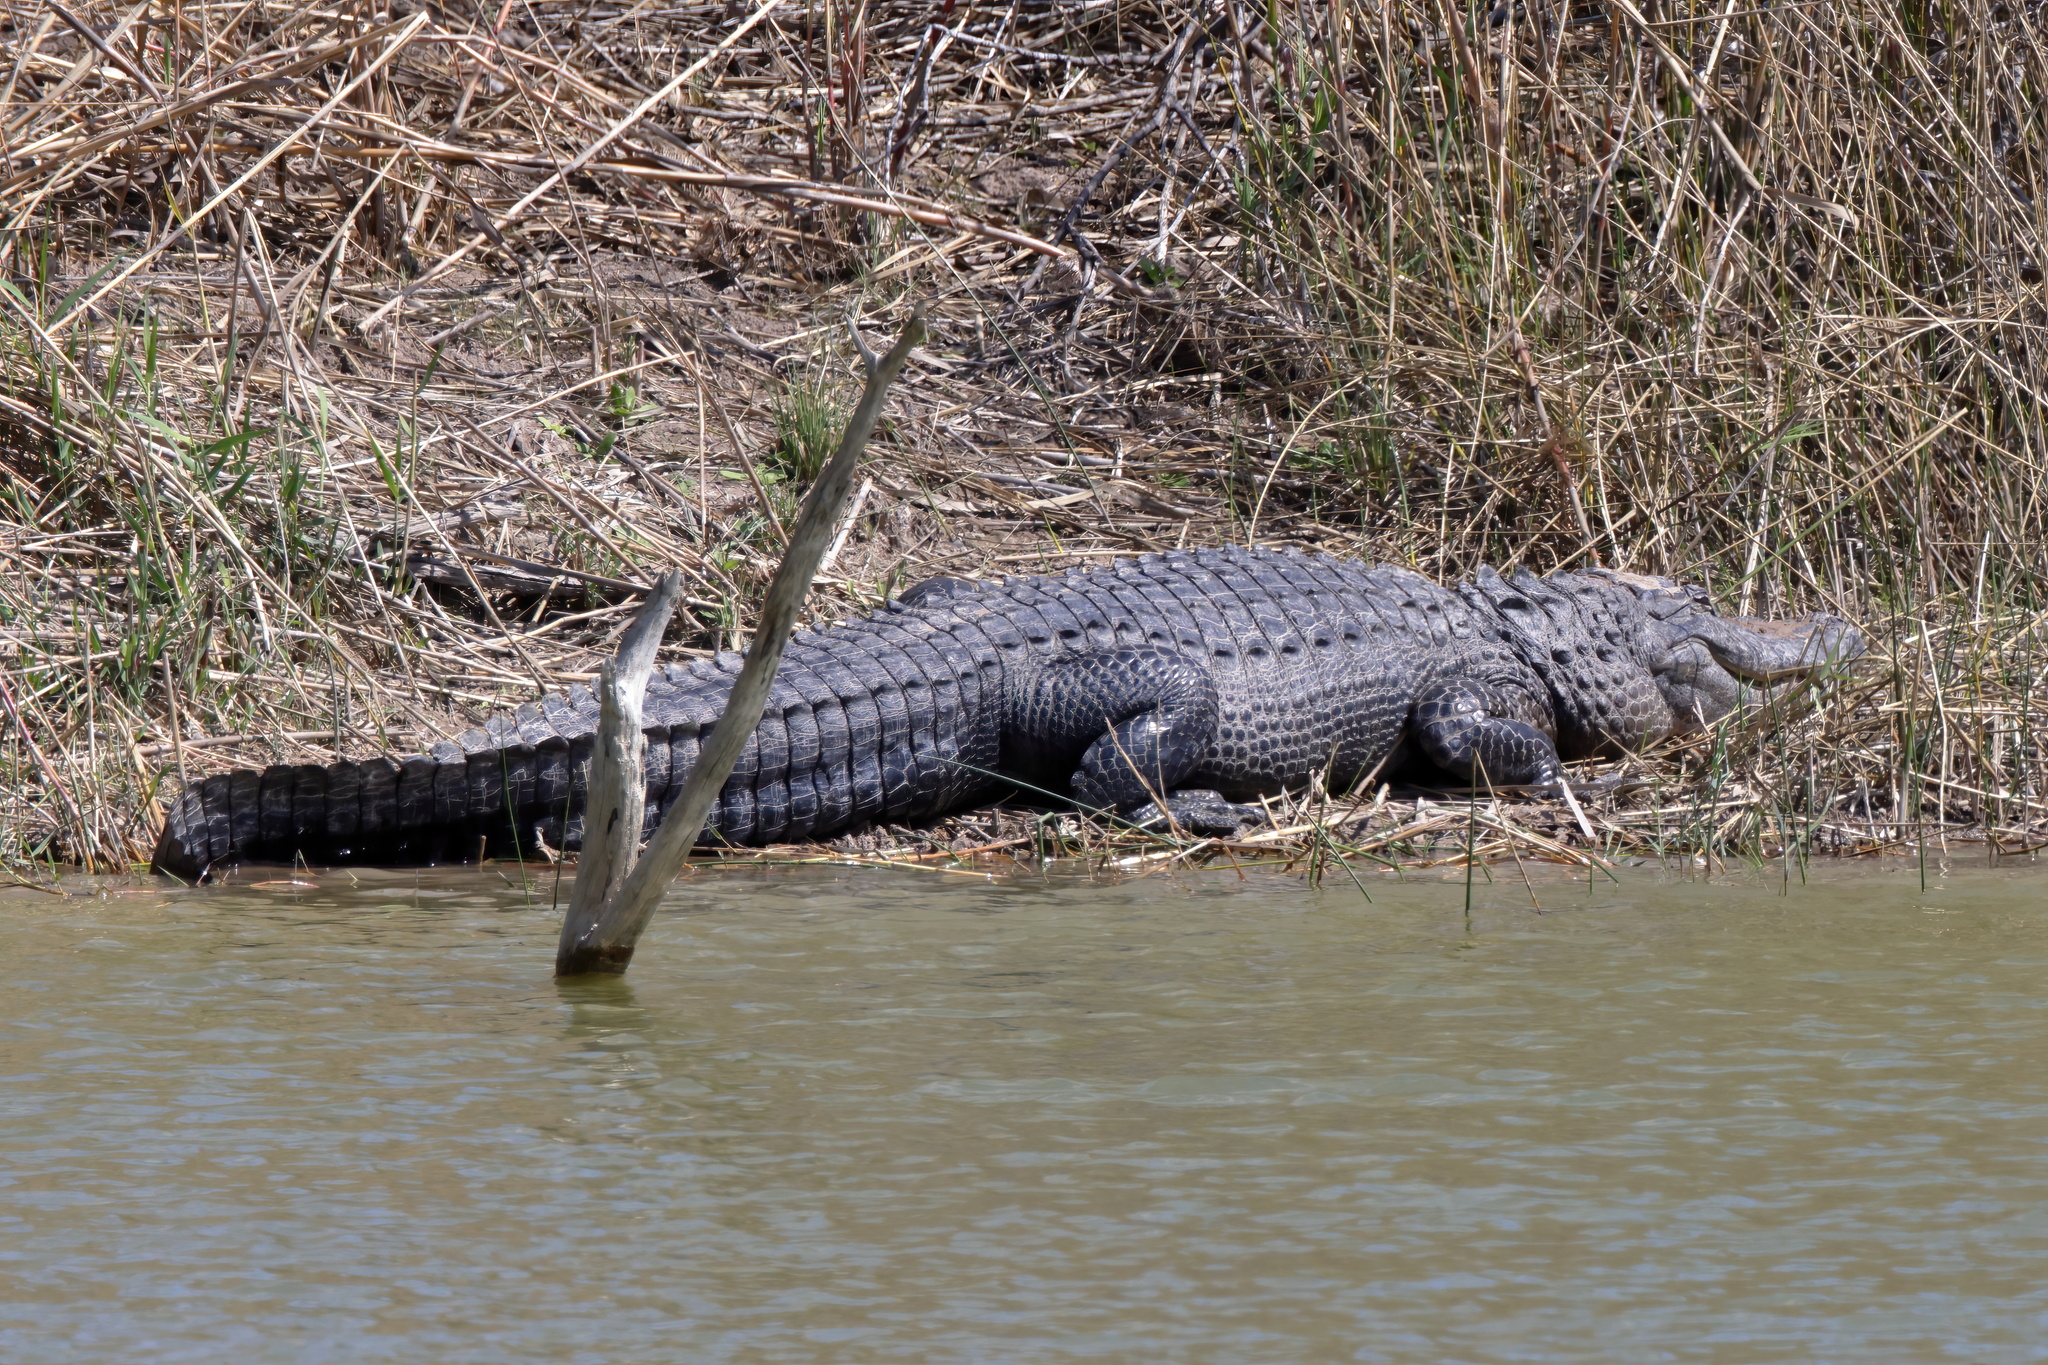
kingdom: Animalia
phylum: Chordata
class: Crocodylia
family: Alligatoridae
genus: Alligator
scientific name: Alligator mississippiensis
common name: American alligator
